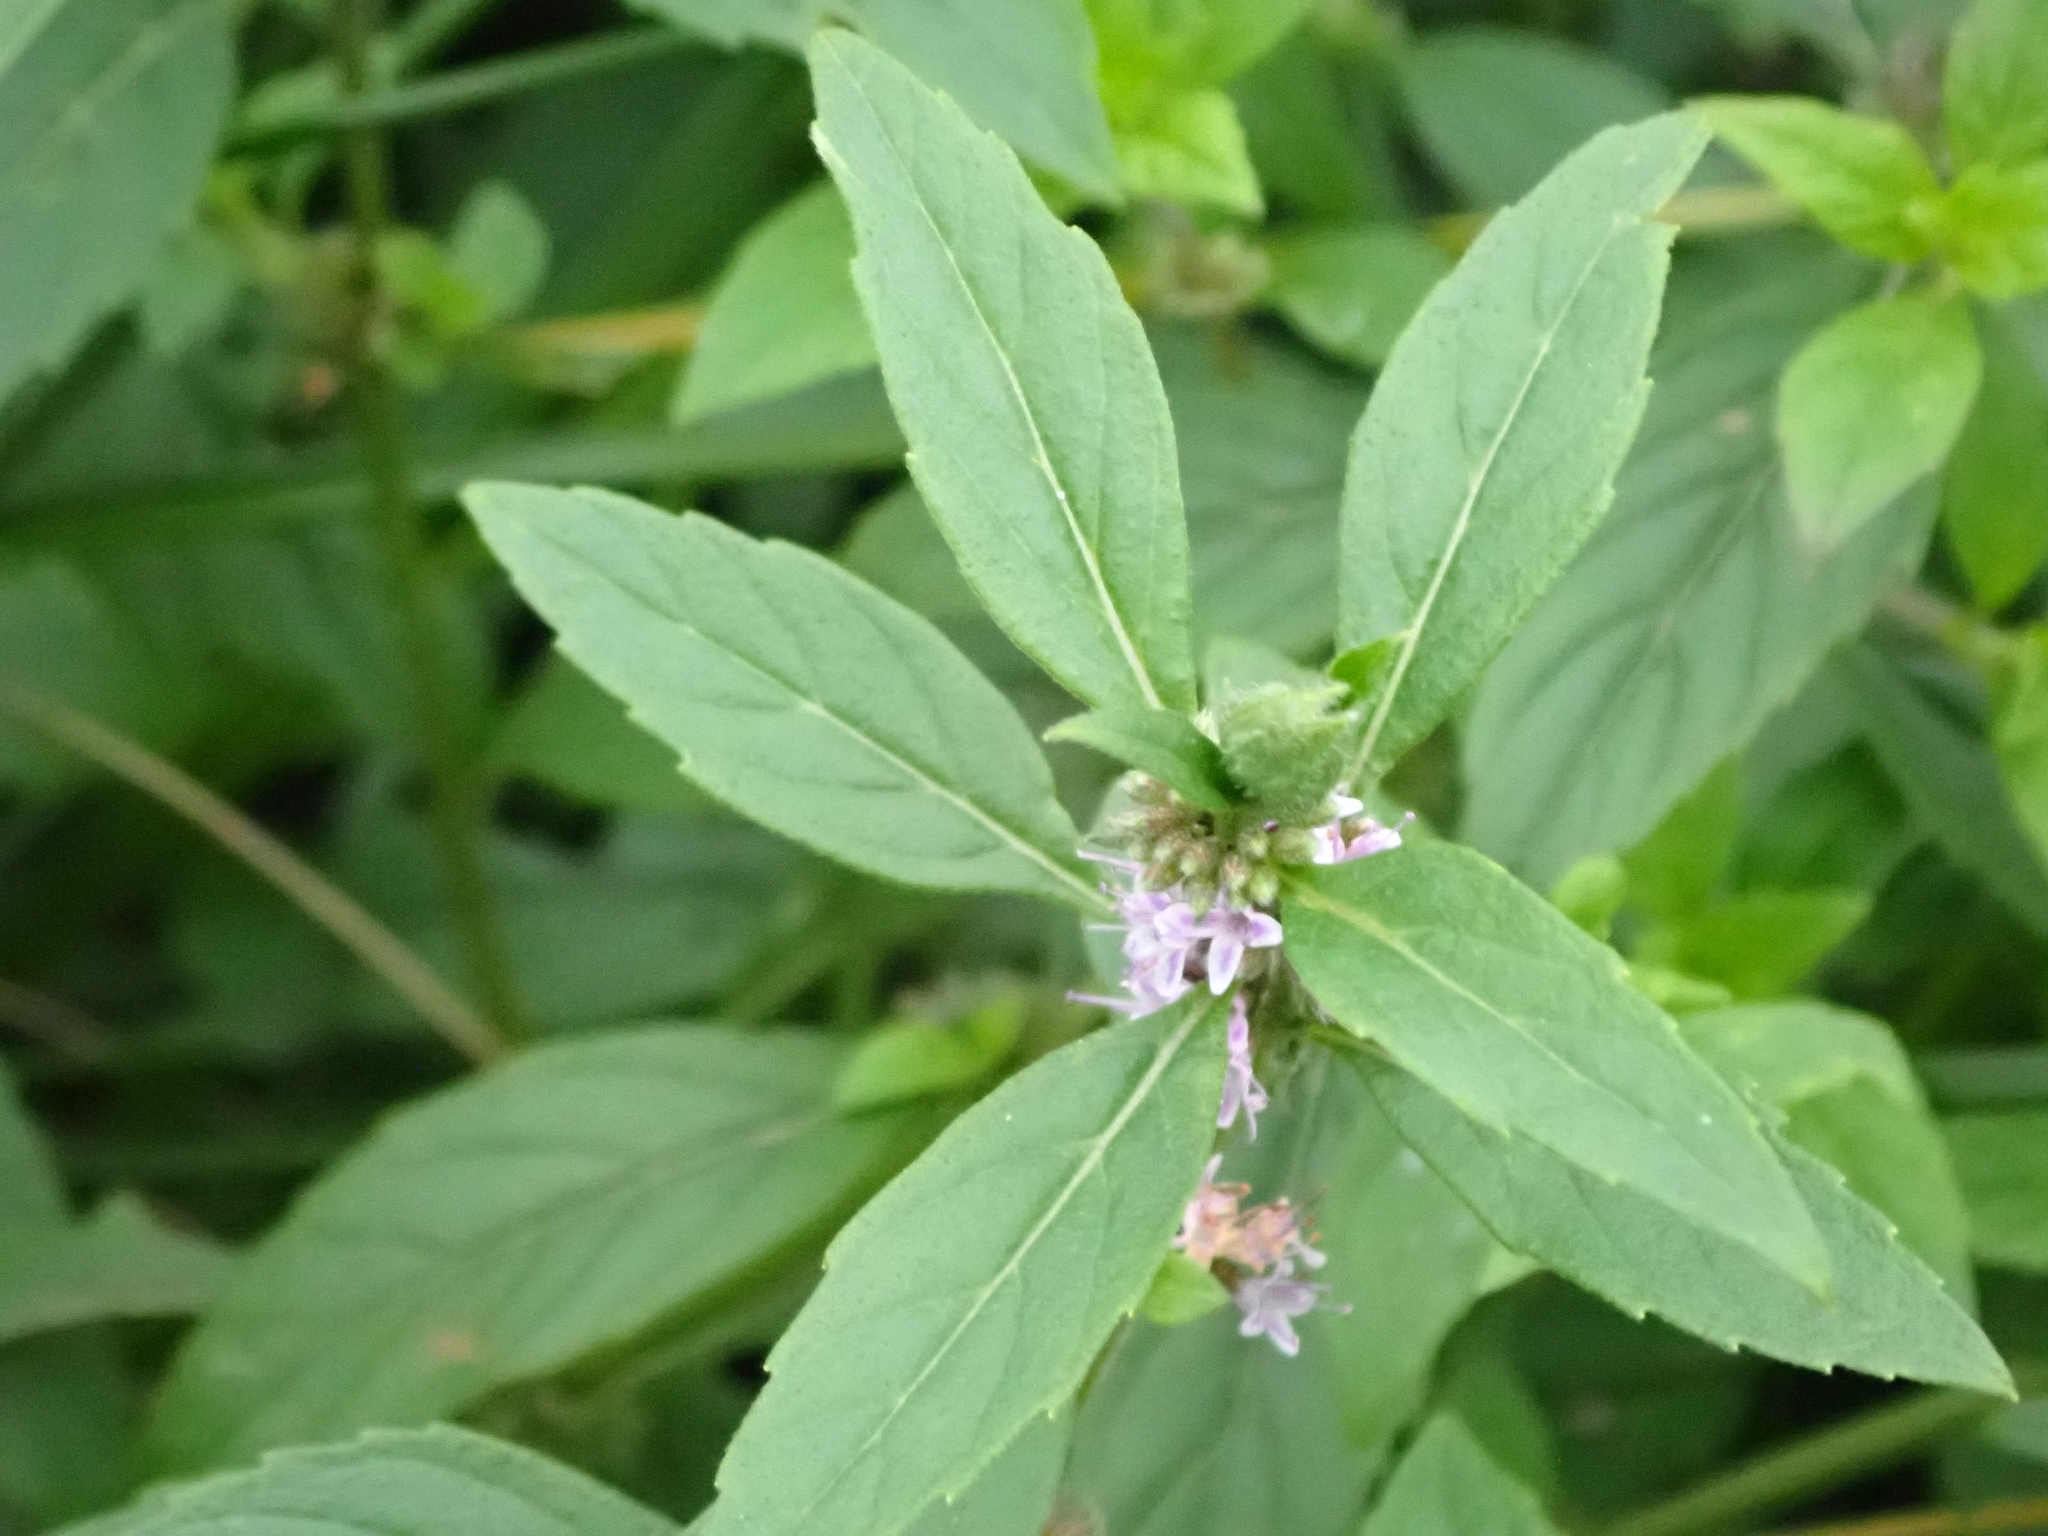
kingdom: Plantae
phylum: Tracheophyta
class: Magnoliopsida
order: Lamiales
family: Lamiaceae
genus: Mentha
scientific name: Mentha canadensis
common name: American corn mint
